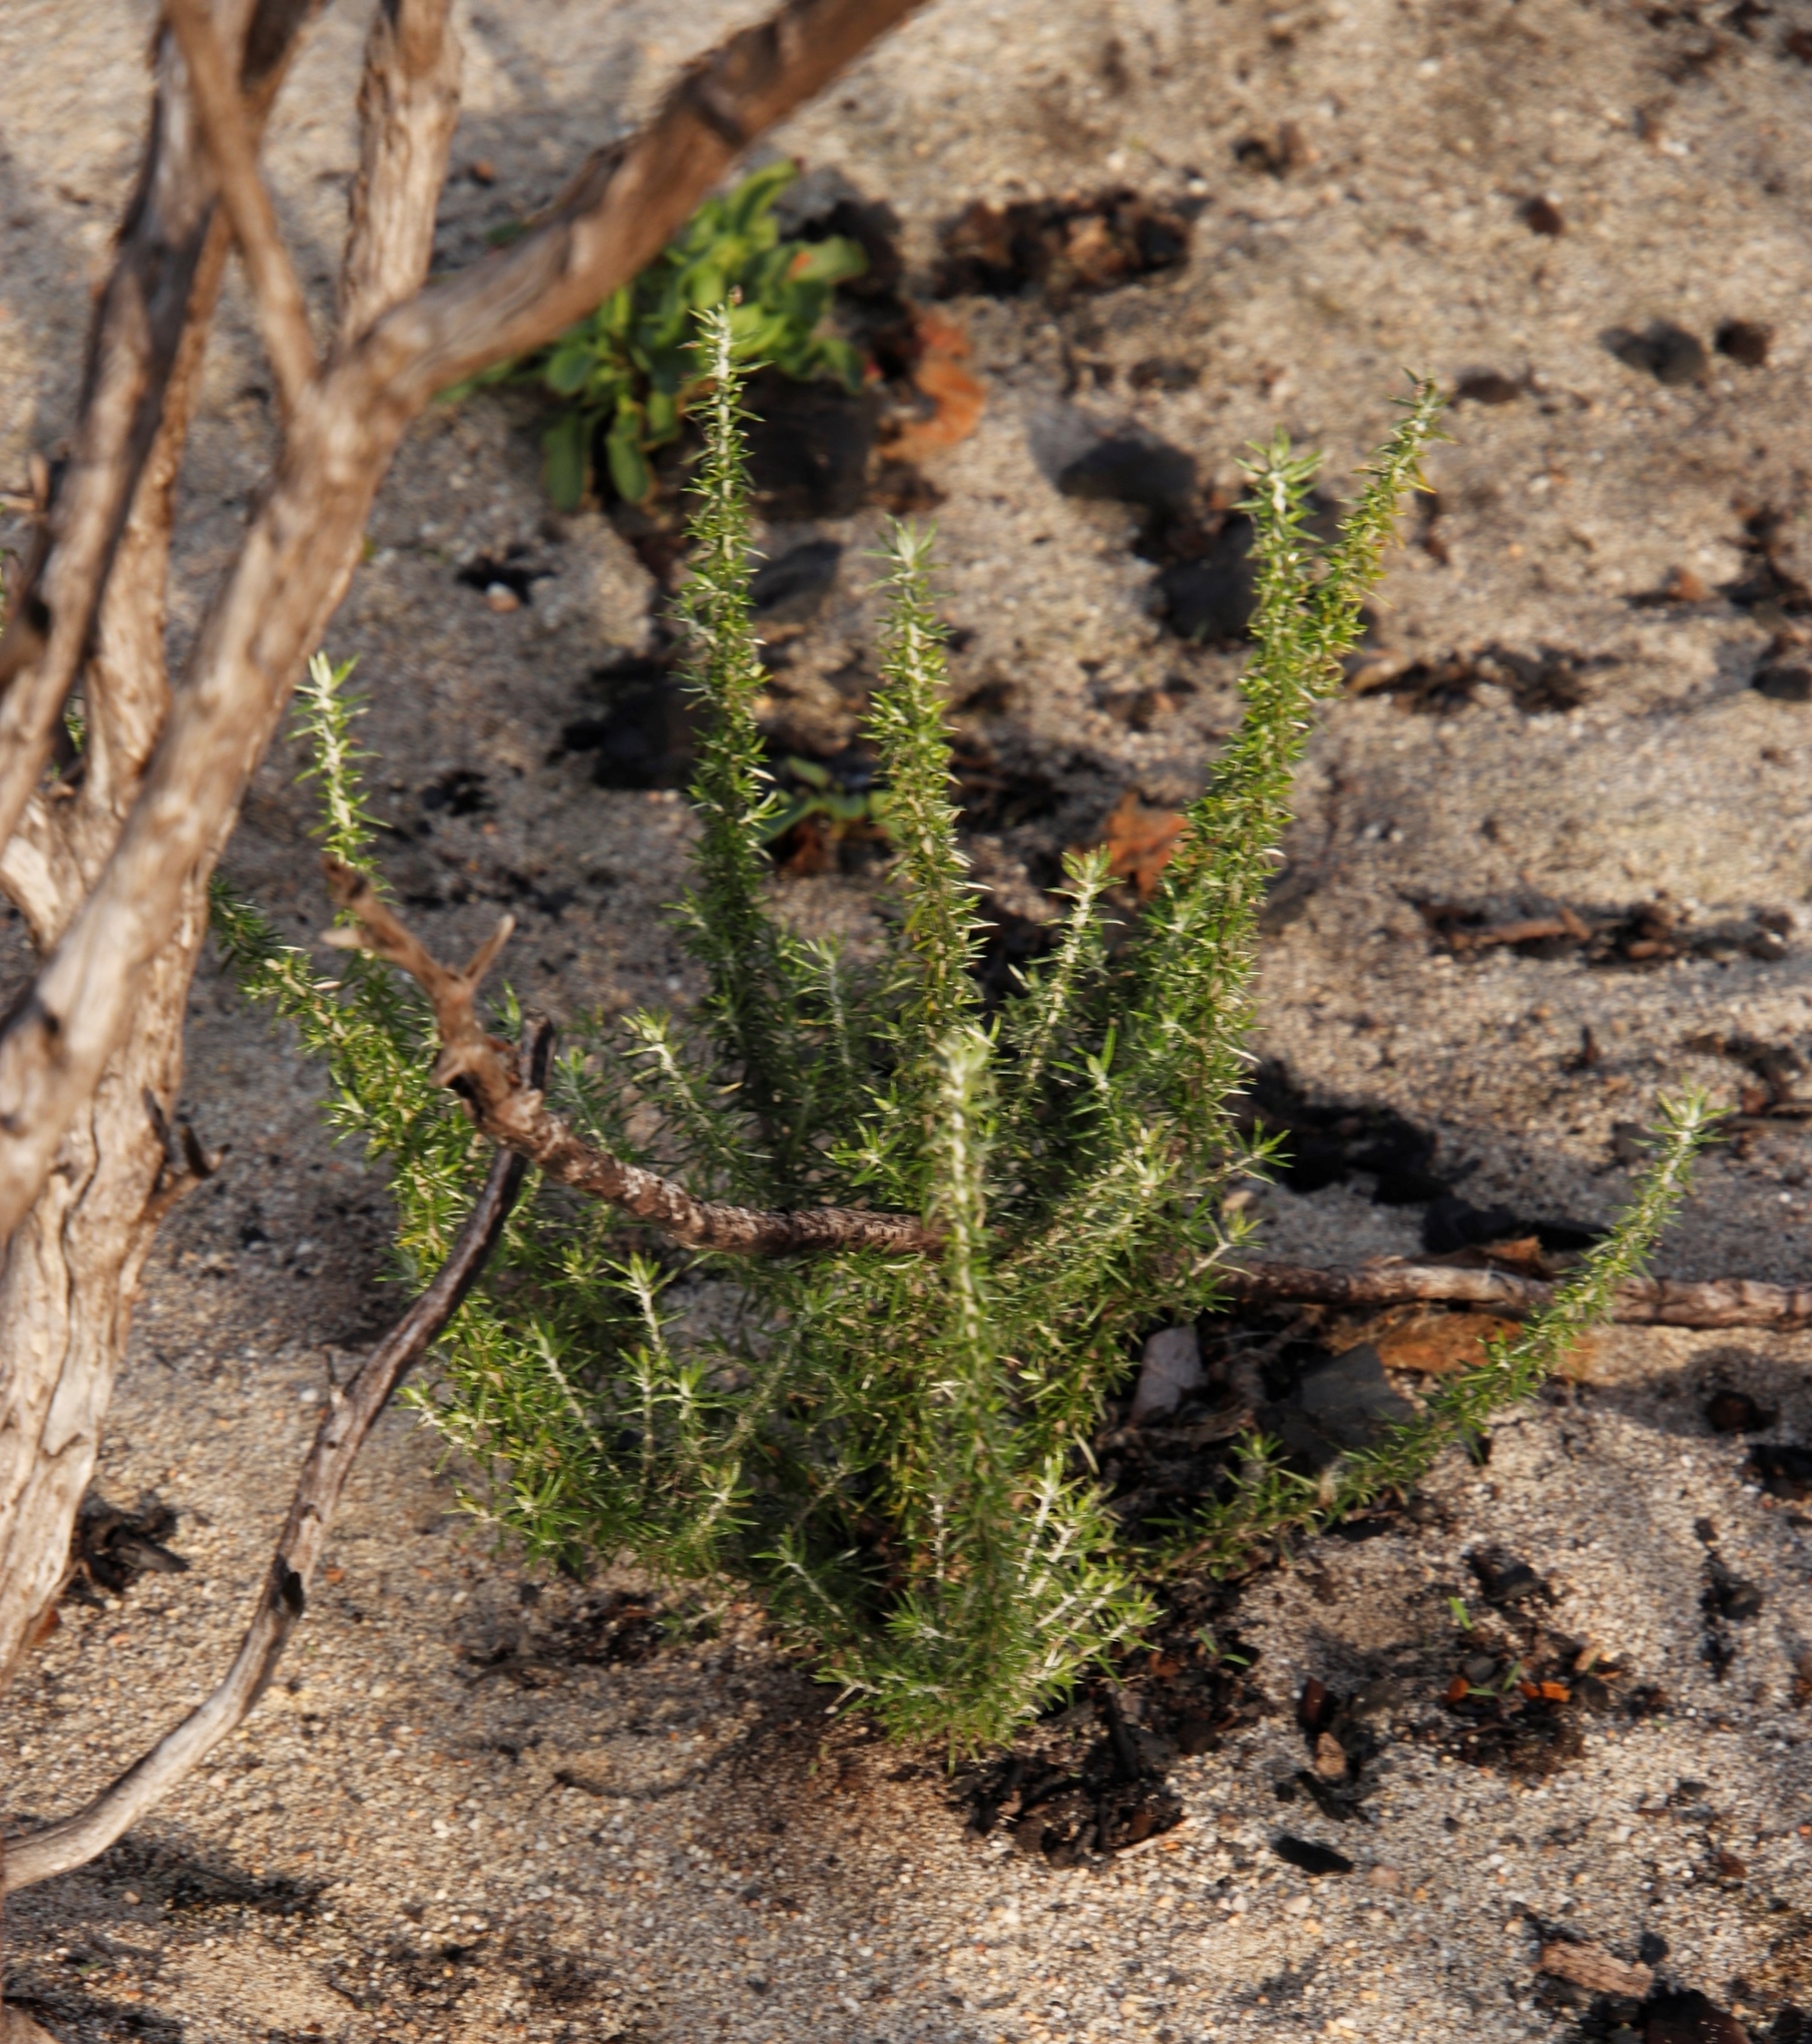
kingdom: Plantae
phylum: Tracheophyta
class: Magnoliopsida
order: Asterales
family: Asteraceae
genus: Metalasia
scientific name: Metalasia densa
